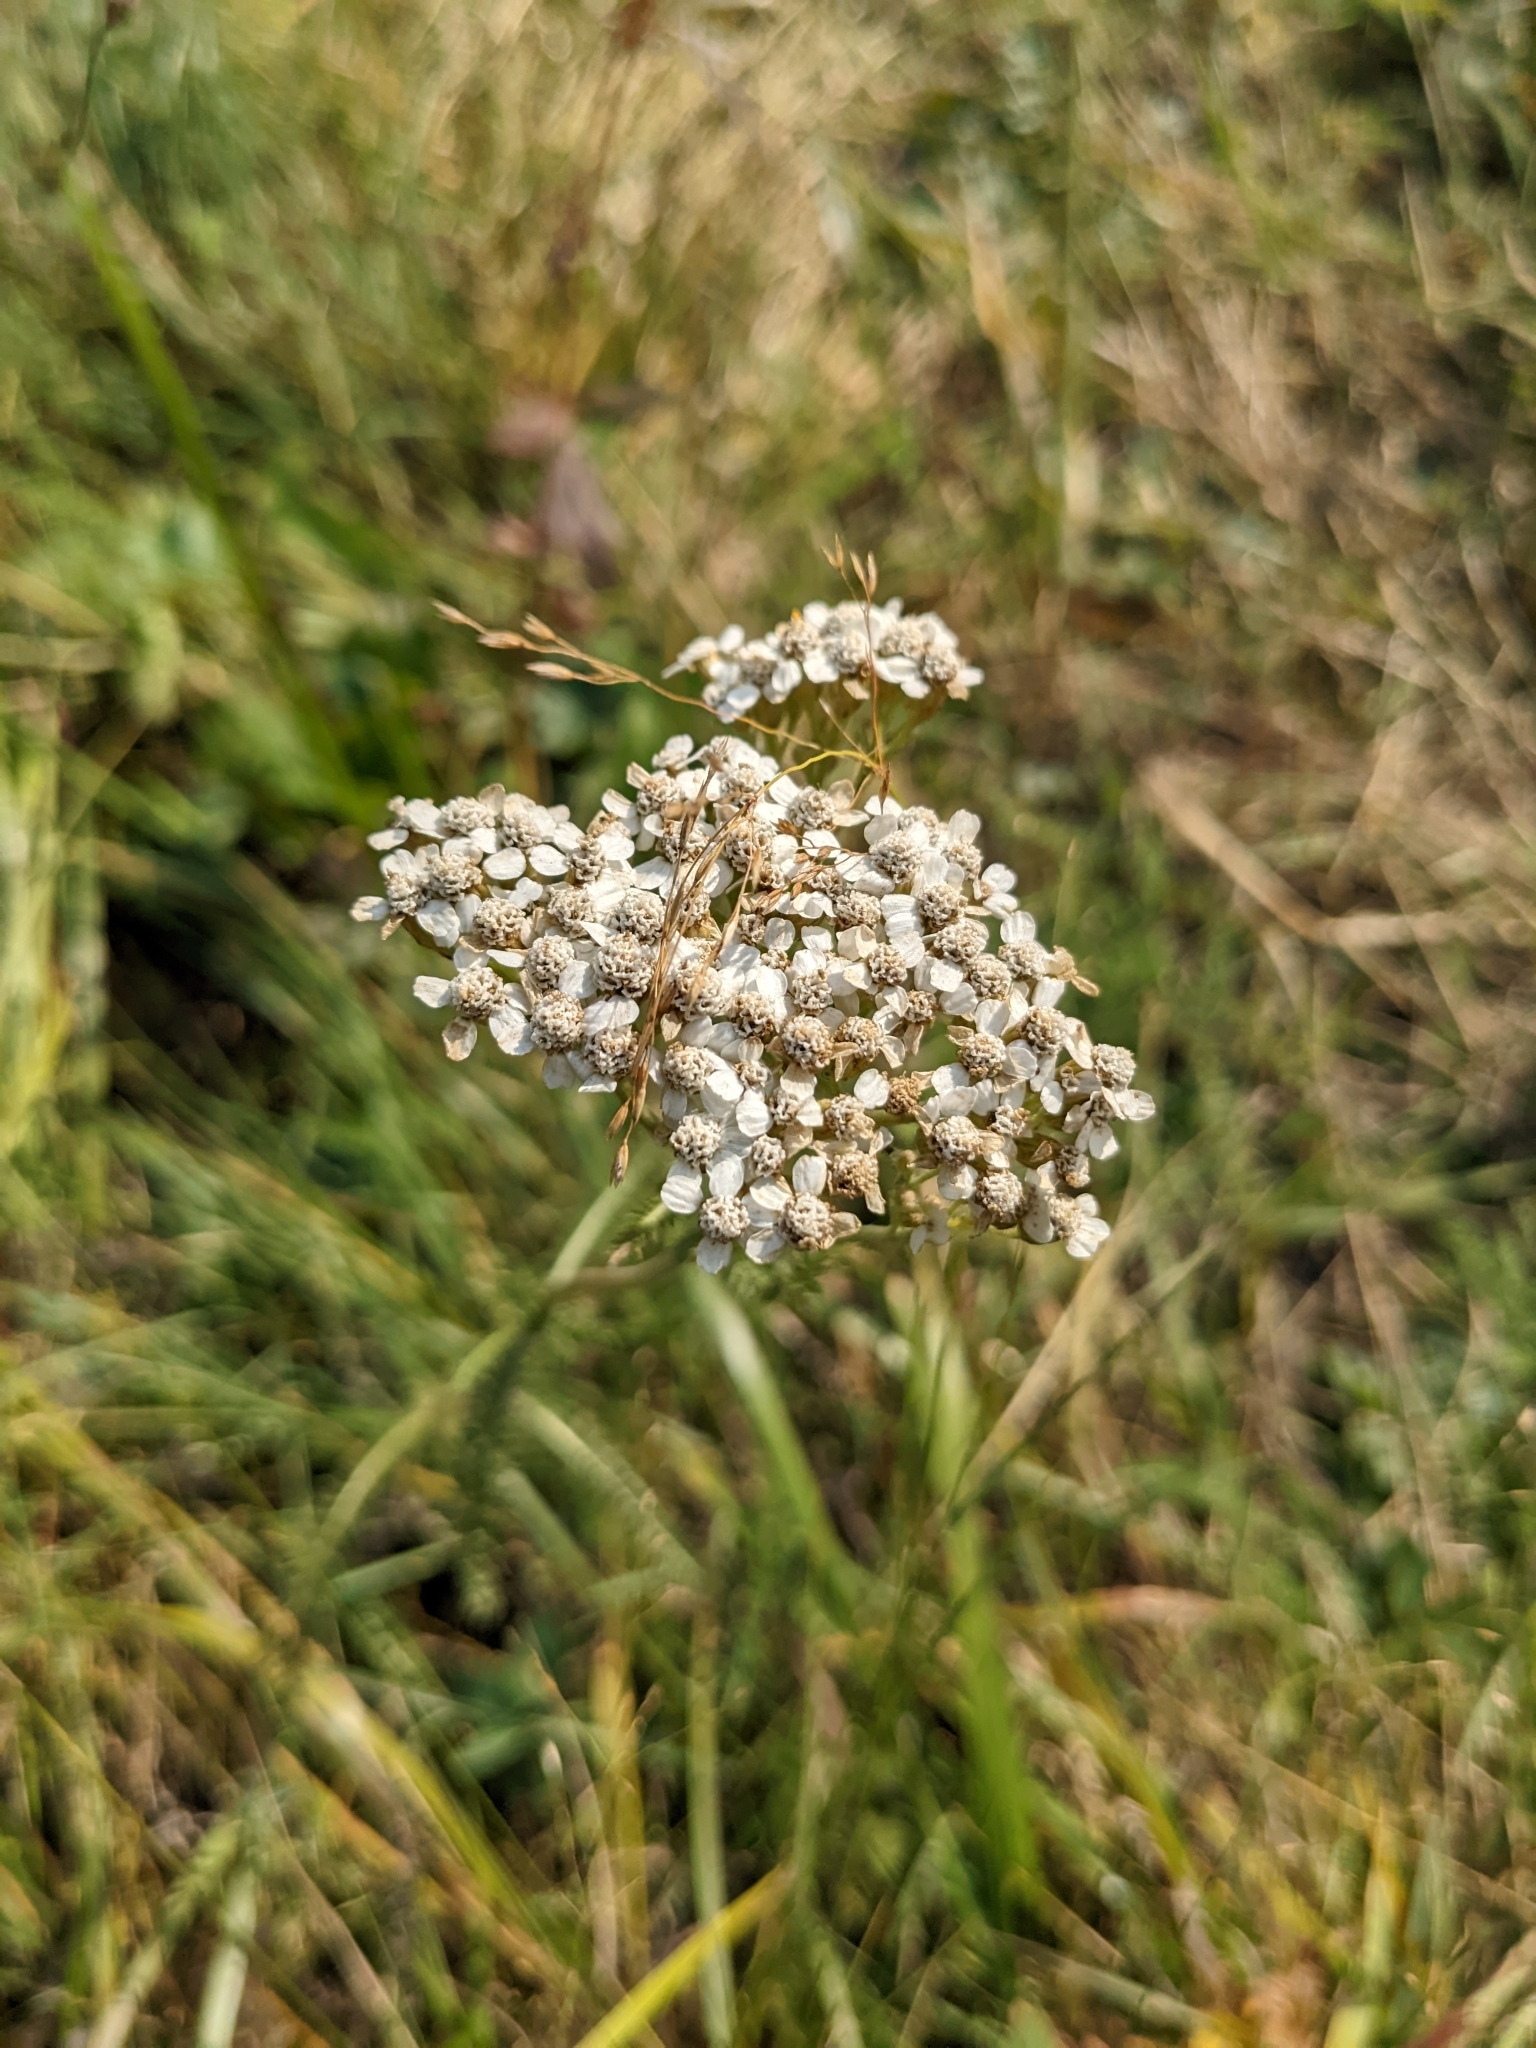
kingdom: Plantae
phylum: Tracheophyta
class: Magnoliopsida
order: Asterales
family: Asteraceae
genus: Achillea
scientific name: Achillea millefolium
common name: Yarrow
